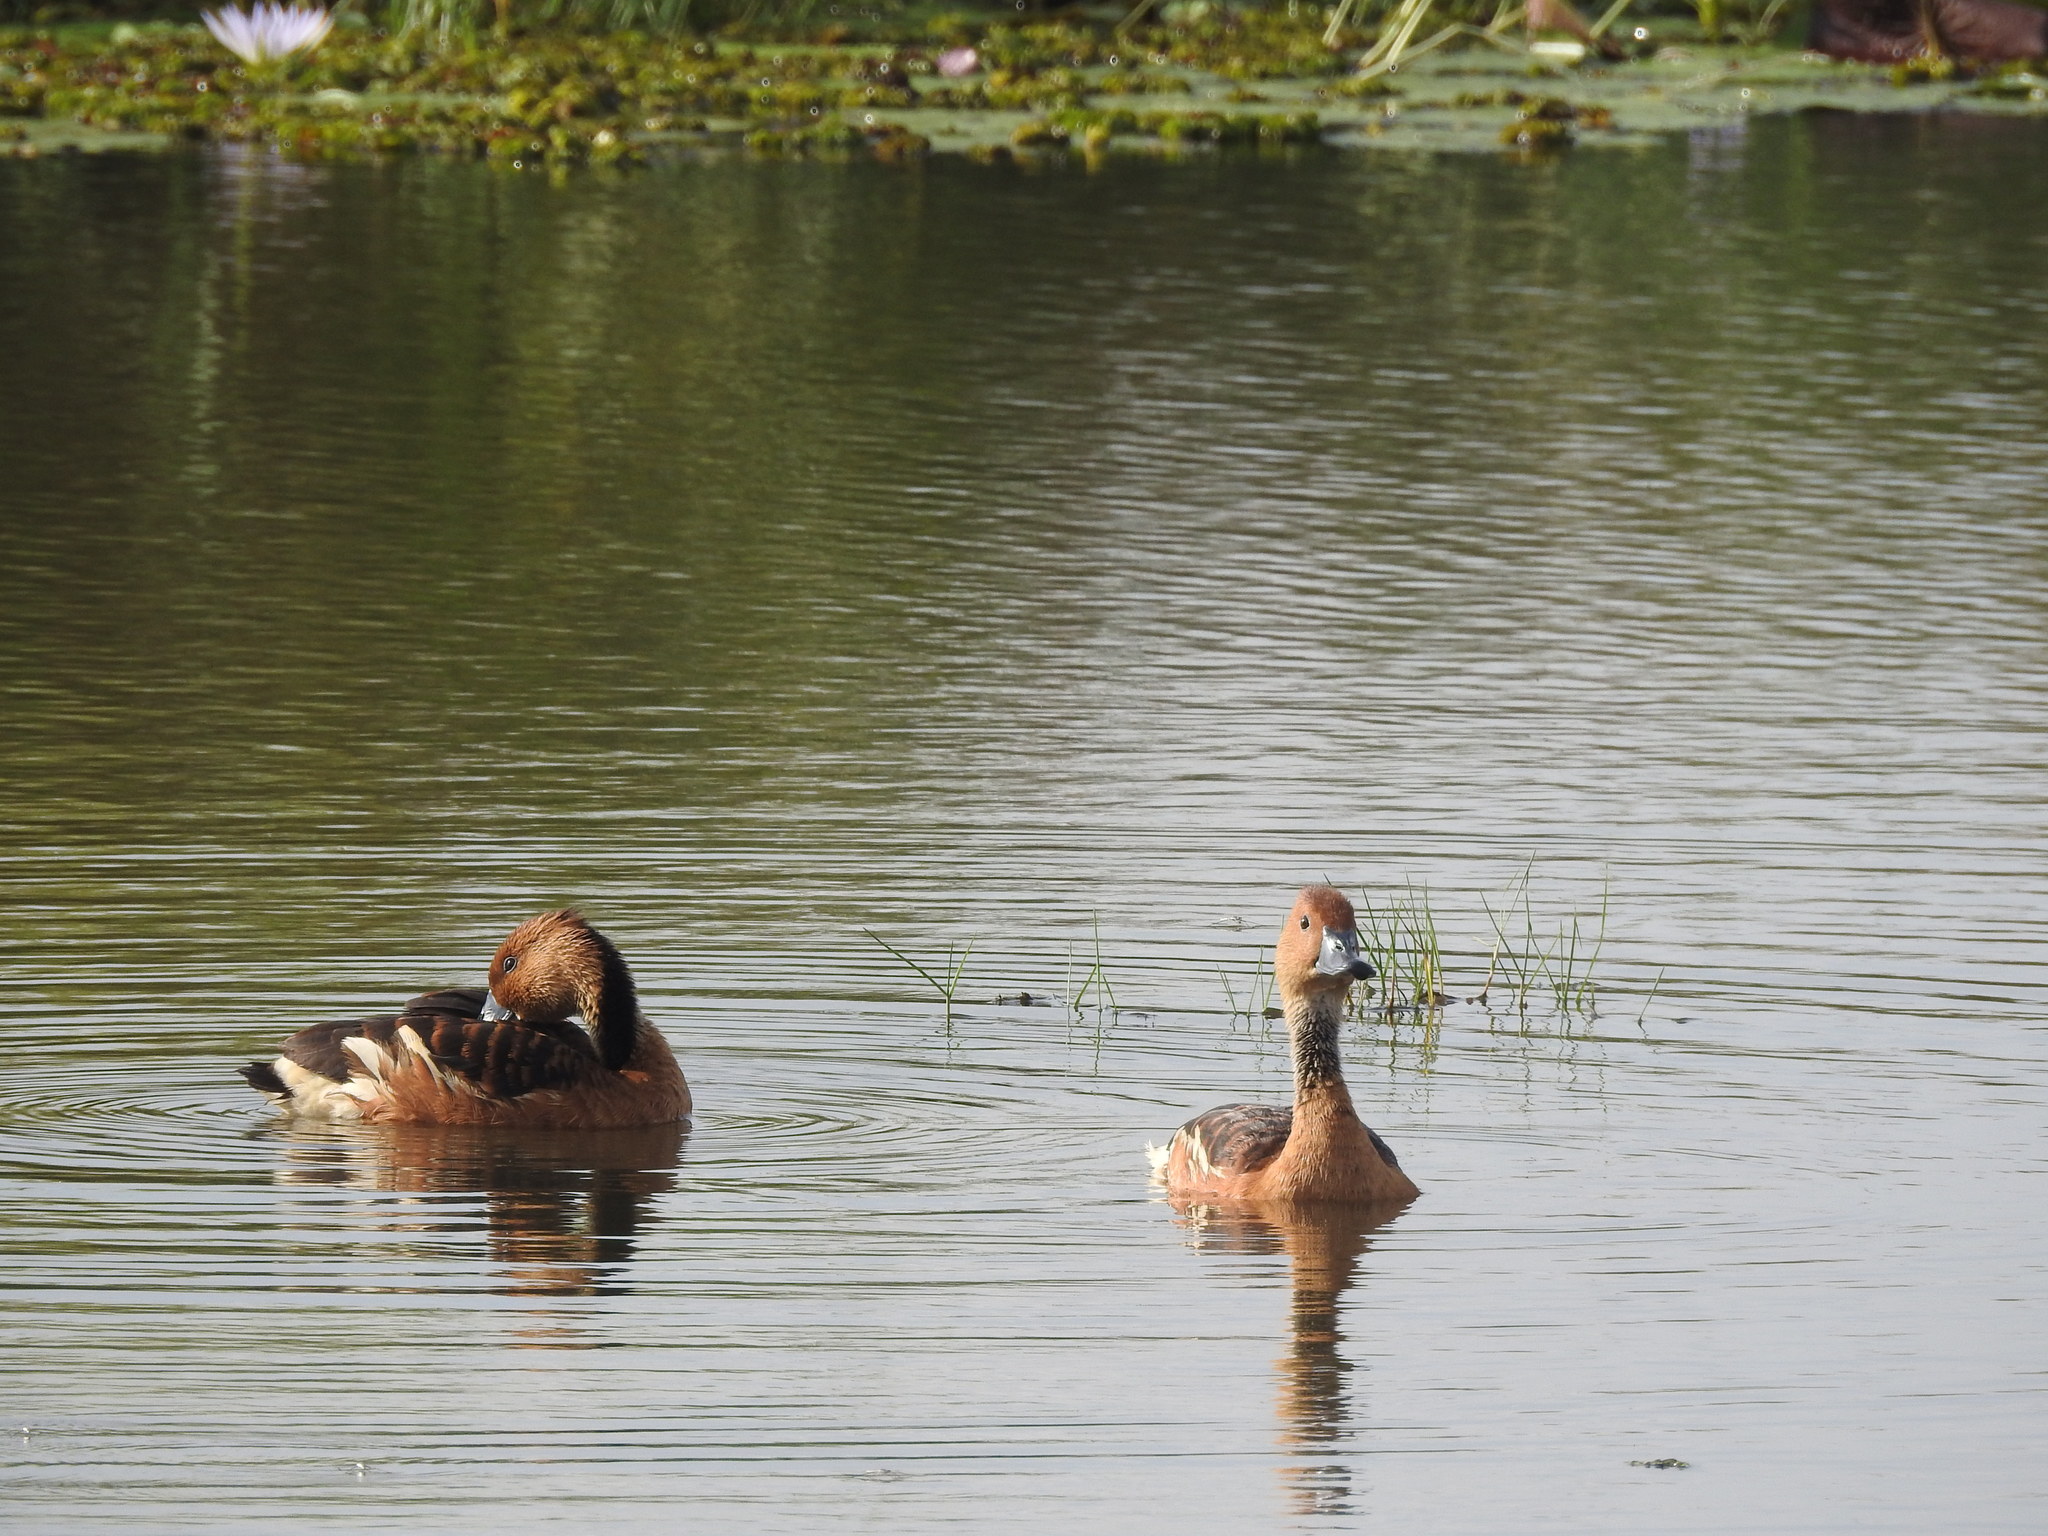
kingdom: Animalia
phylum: Chordata
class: Aves
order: Anseriformes
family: Anatidae
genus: Dendrocygna
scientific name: Dendrocygna bicolor
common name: Fulvous whistling duck
